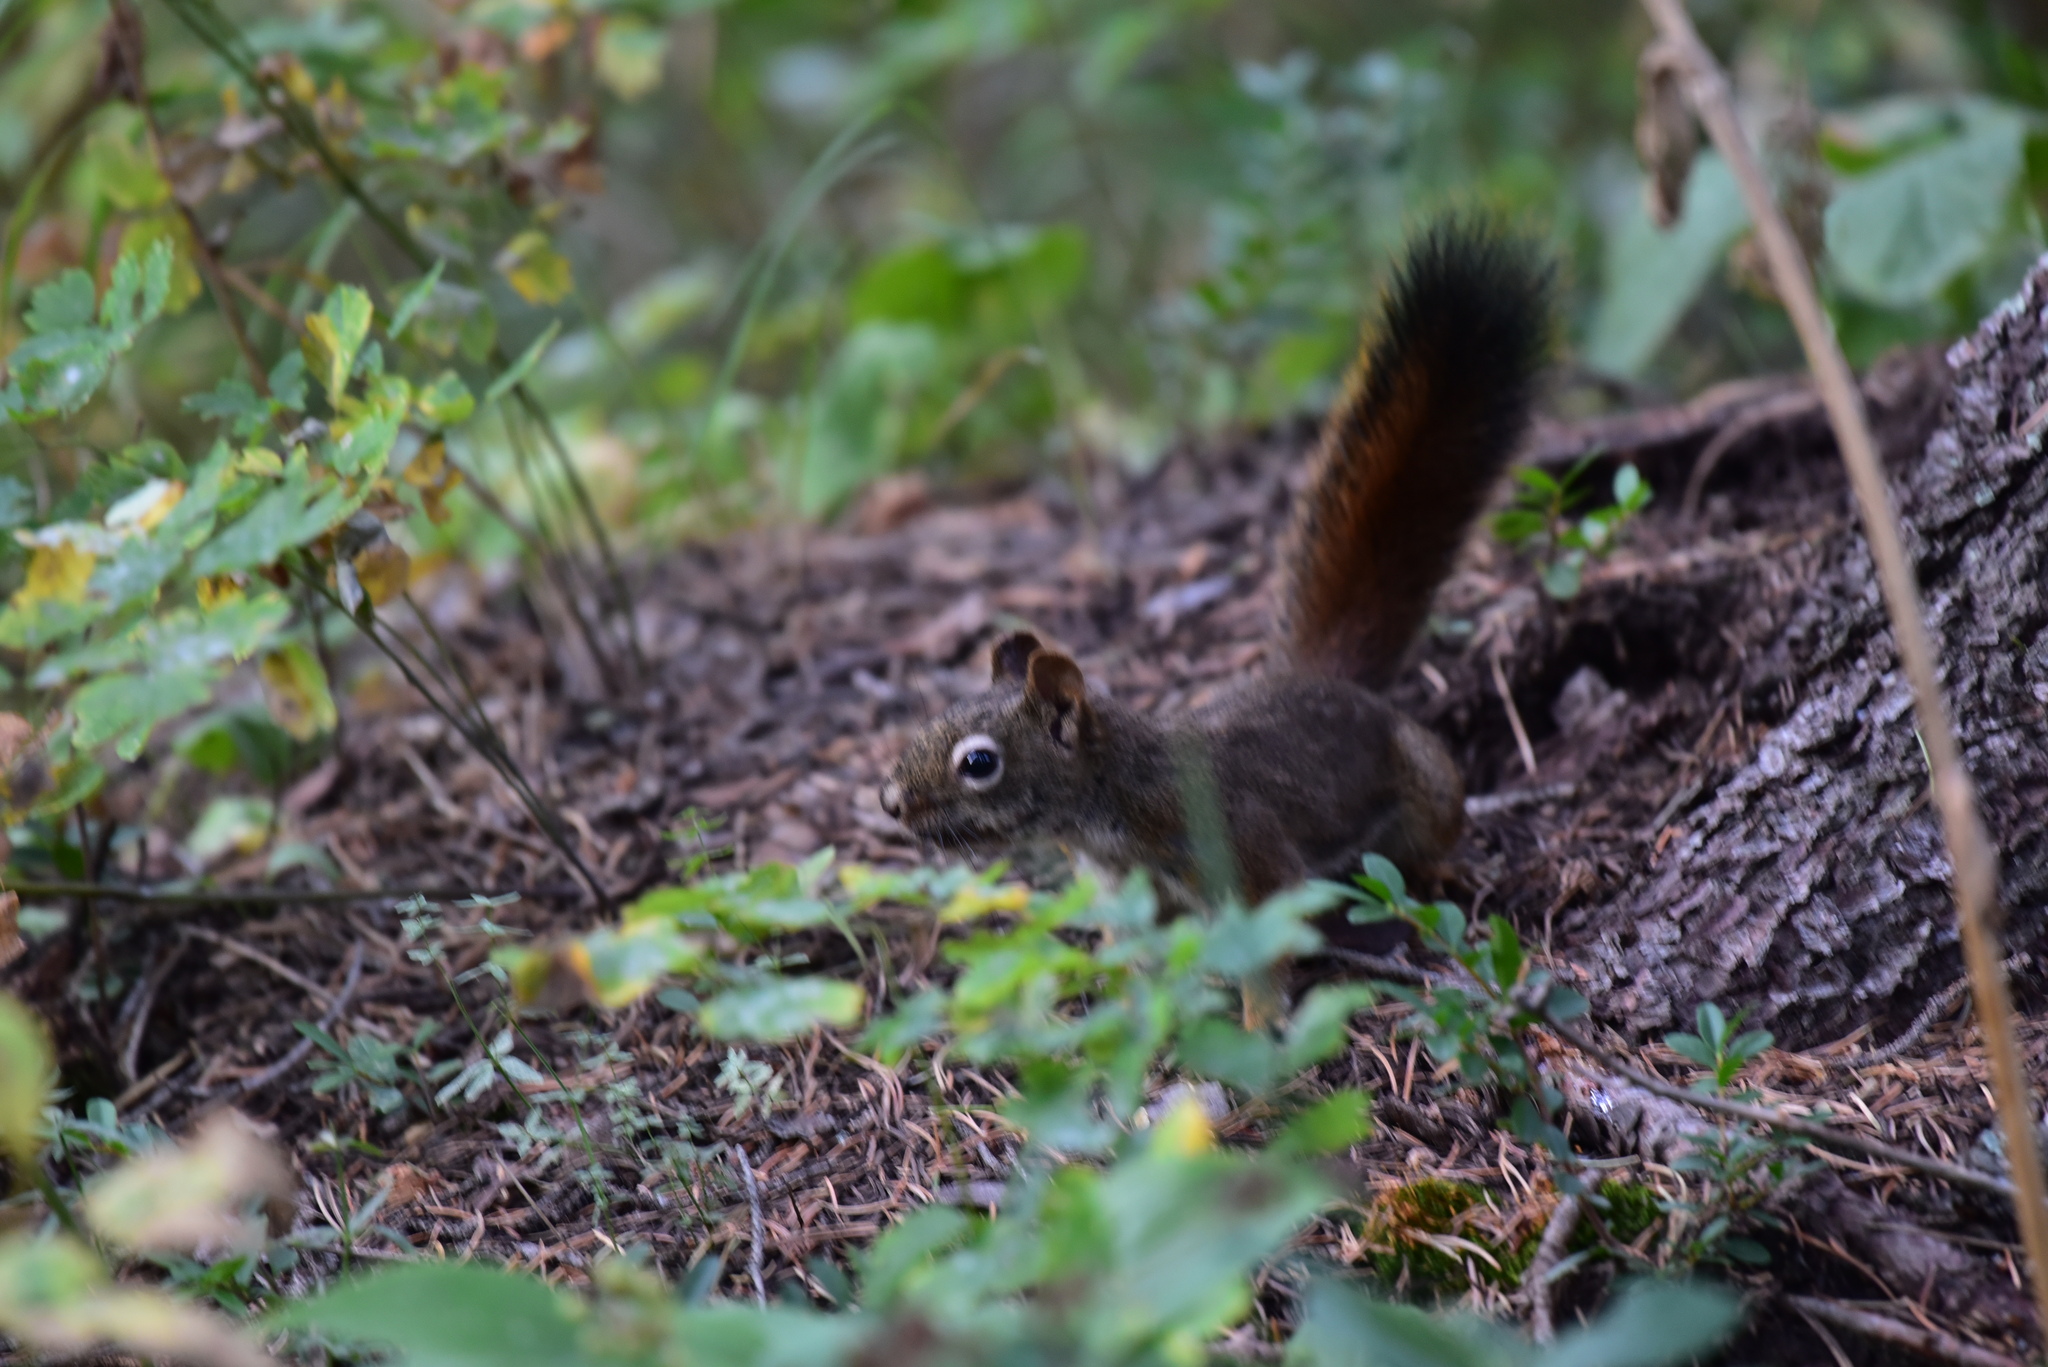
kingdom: Animalia
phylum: Chordata
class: Mammalia
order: Rodentia
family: Sciuridae
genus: Tamiasciurus
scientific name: Tamiasciurus hudsonicus
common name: Red squirrel
